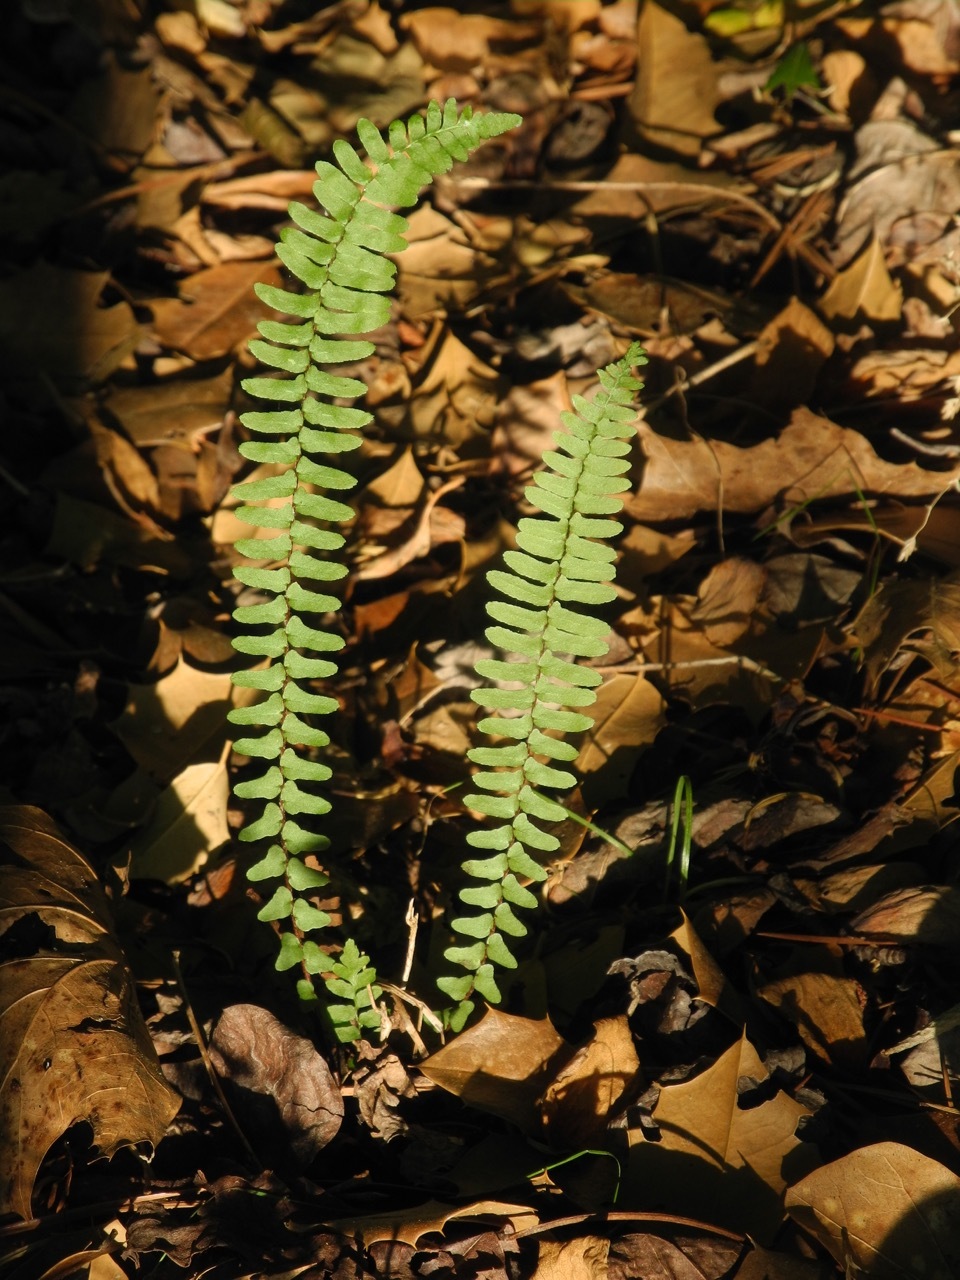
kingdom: Plantae
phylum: Tracheophyta
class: Polypodiopsida
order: Polypodiales
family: Aspleniaceae
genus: Asplenium
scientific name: Asplenium platyneuron
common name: Ebony spleenwort
